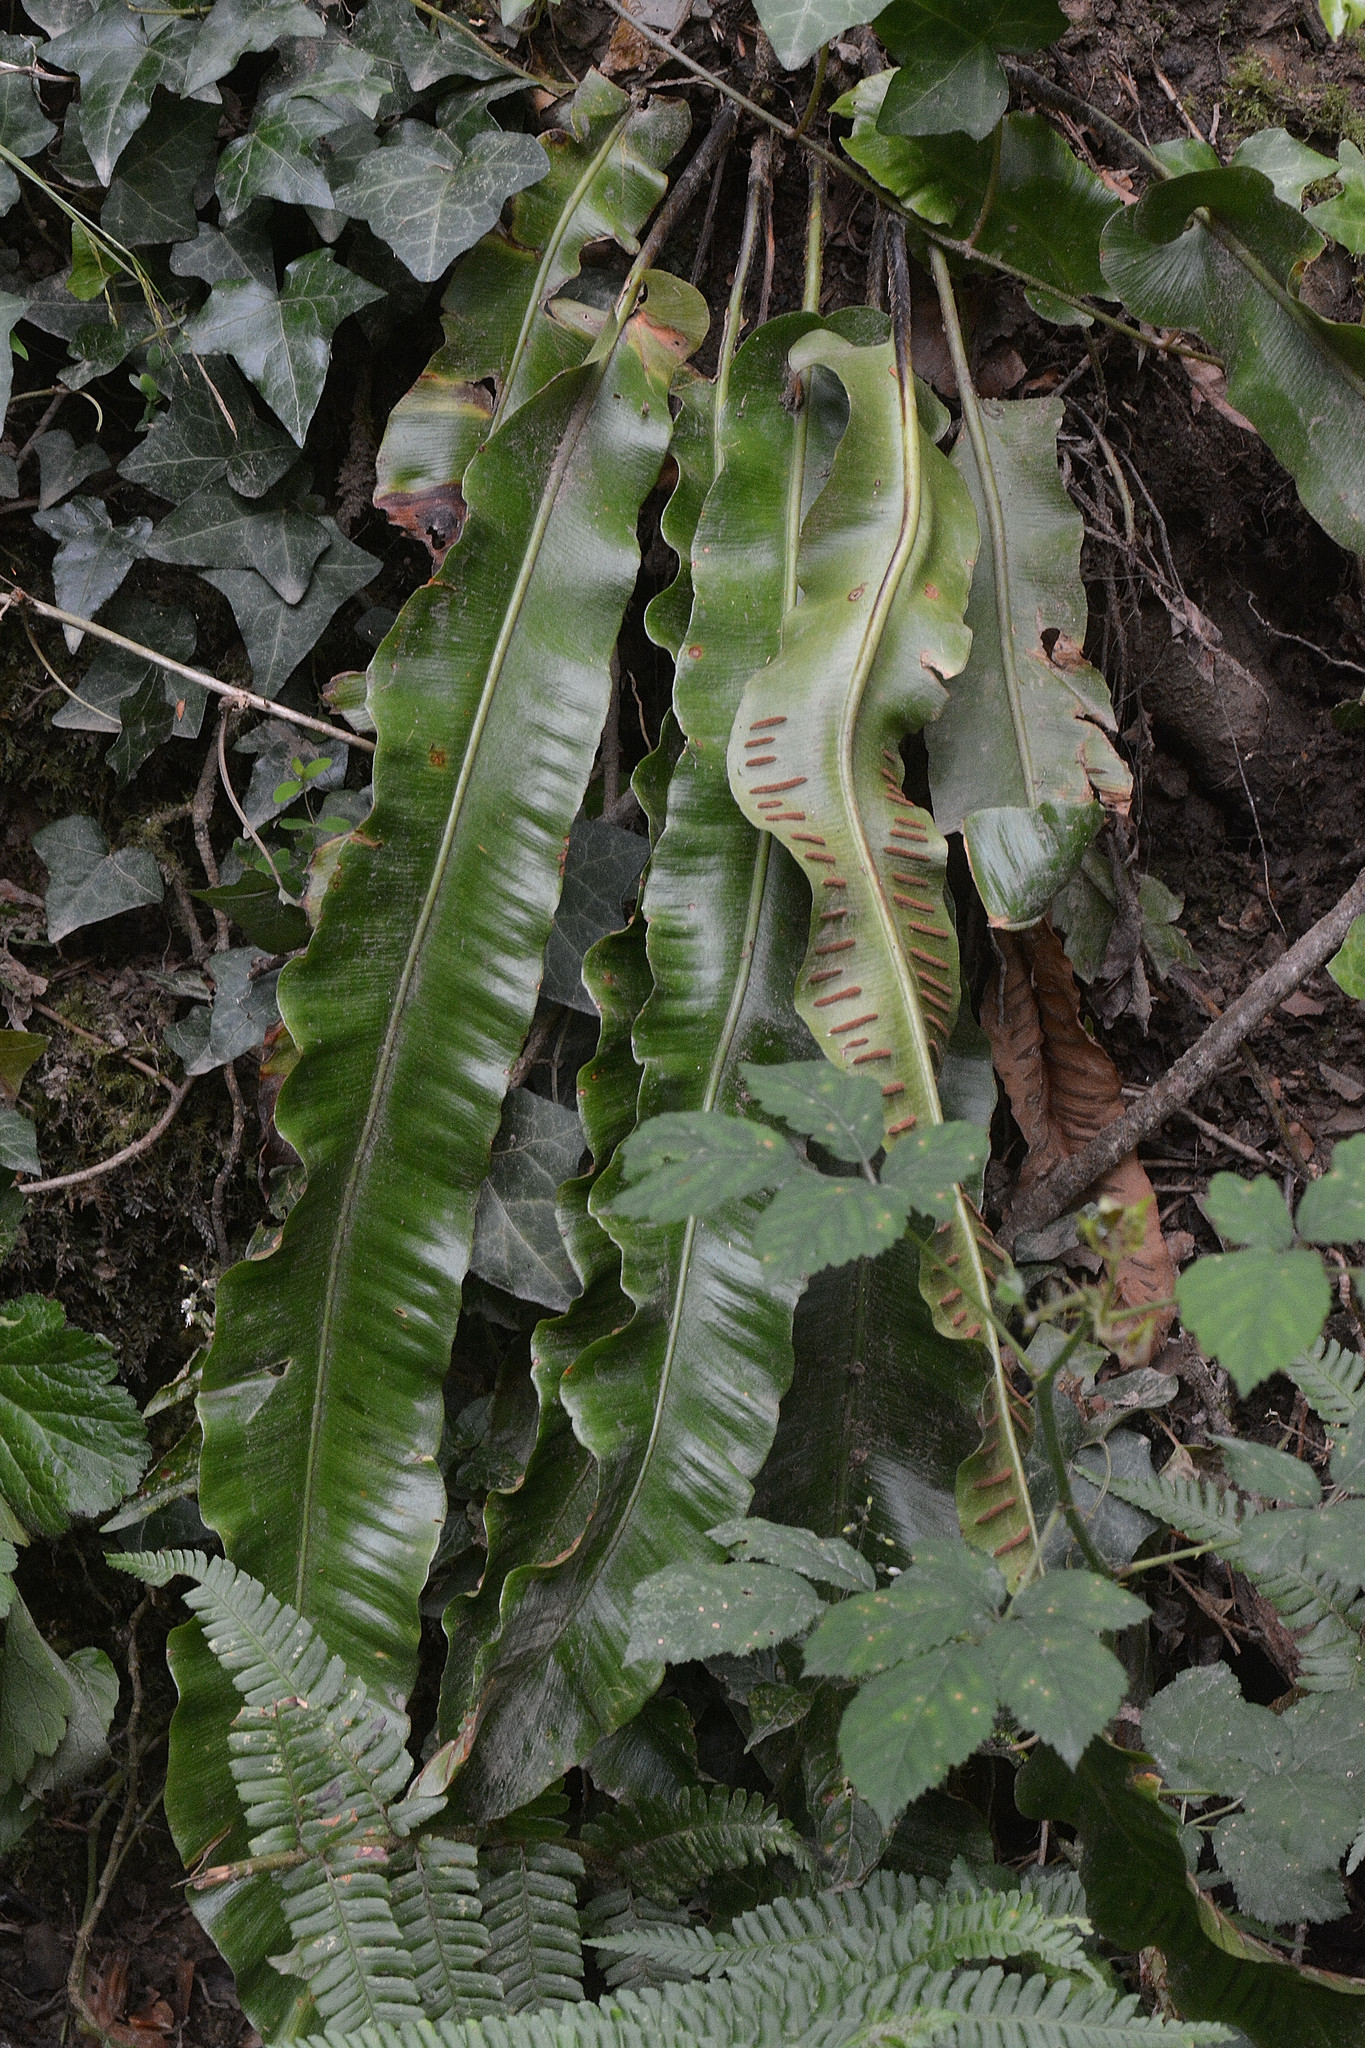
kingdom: Plantae
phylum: Tracheophyta
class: Polypodiopsida
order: Polypodiales
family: Aspleniaceae
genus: Asplenium
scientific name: Asplenium scolopendrium
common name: Hart's-tongue fern
